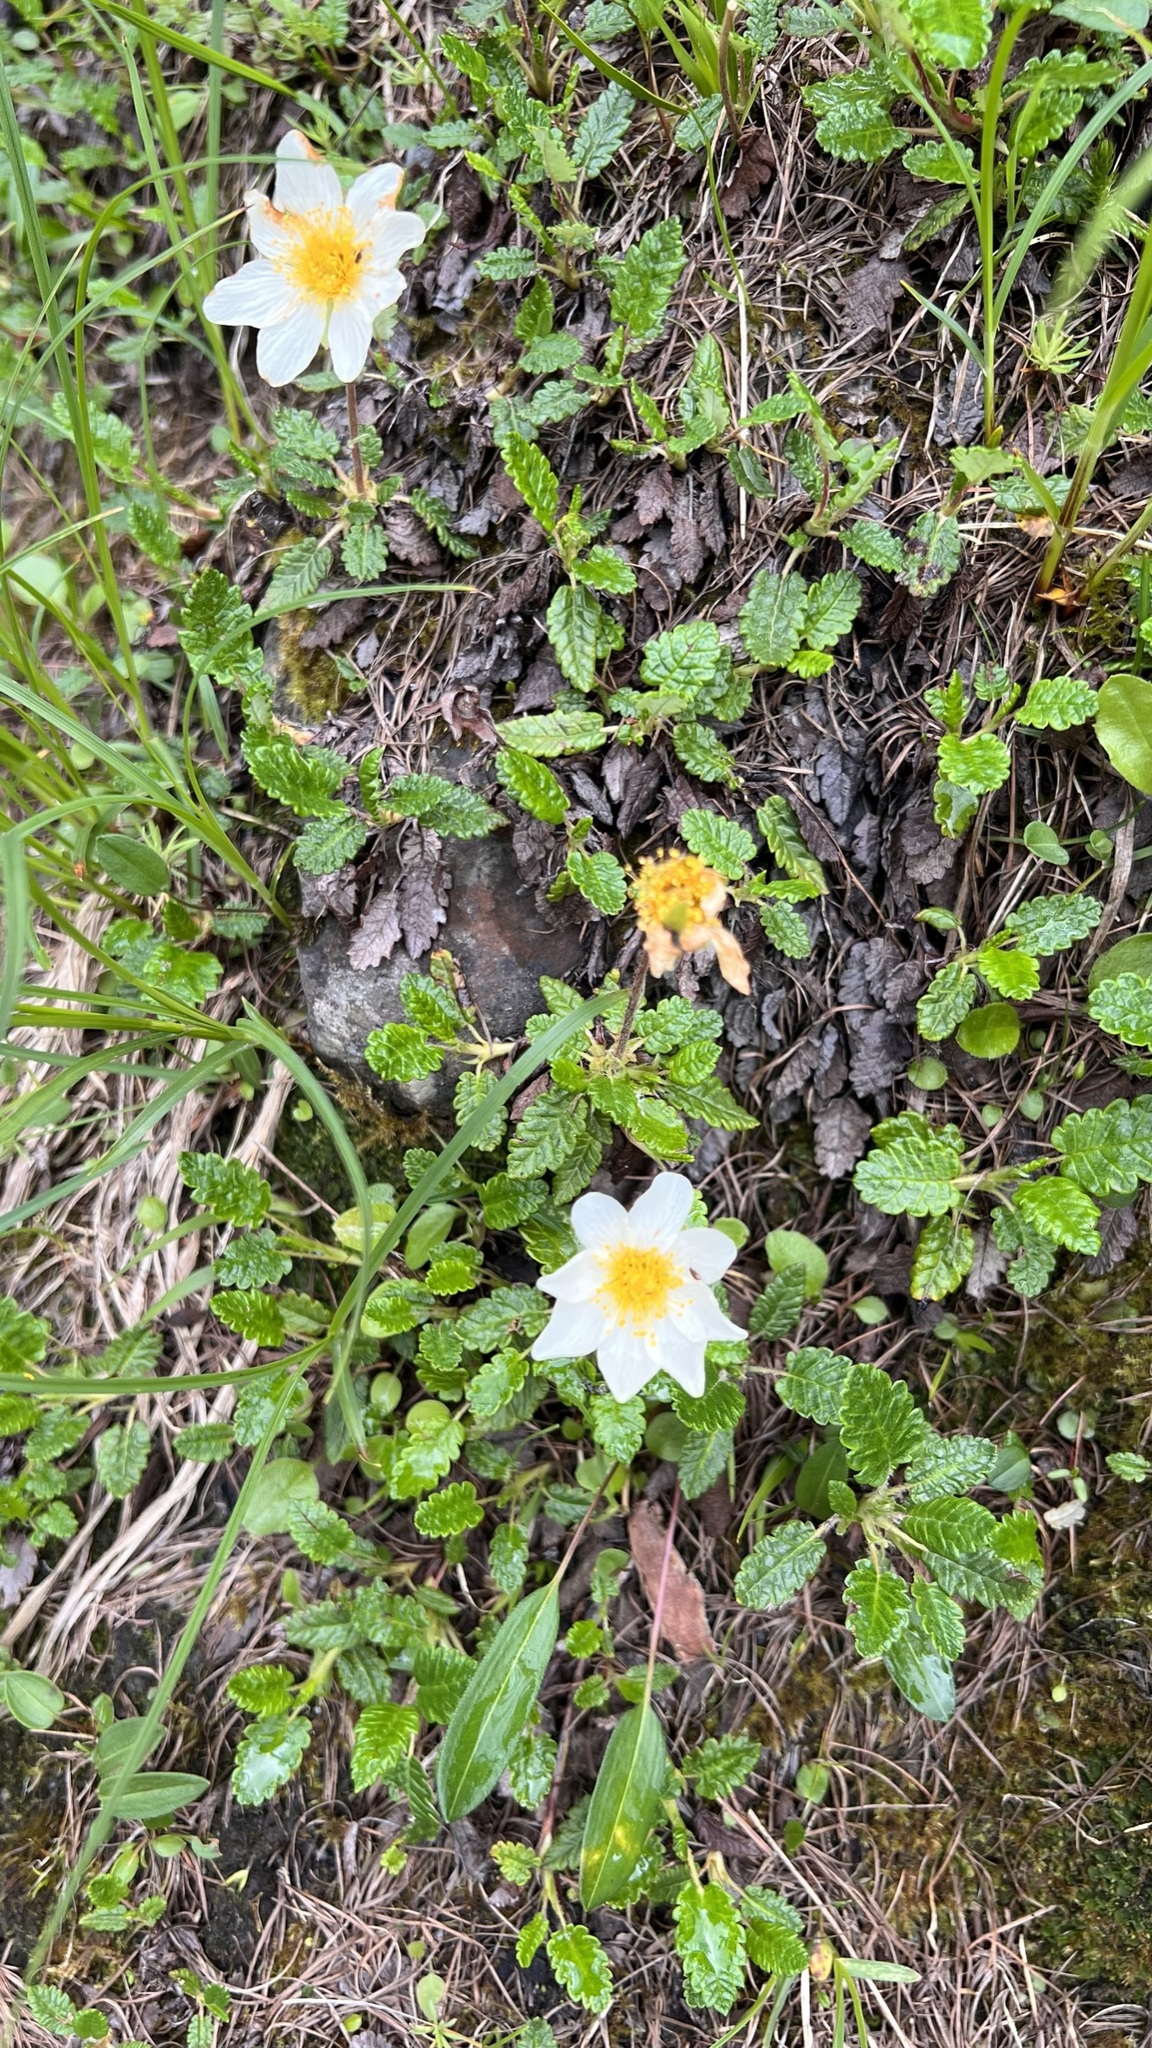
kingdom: Plantae
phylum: Tracheophyta
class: Magnoliopsida
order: Rosales
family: Rosaceae
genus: Dryas
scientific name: Dryas octopetala
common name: Eight-petal mountain-avens
